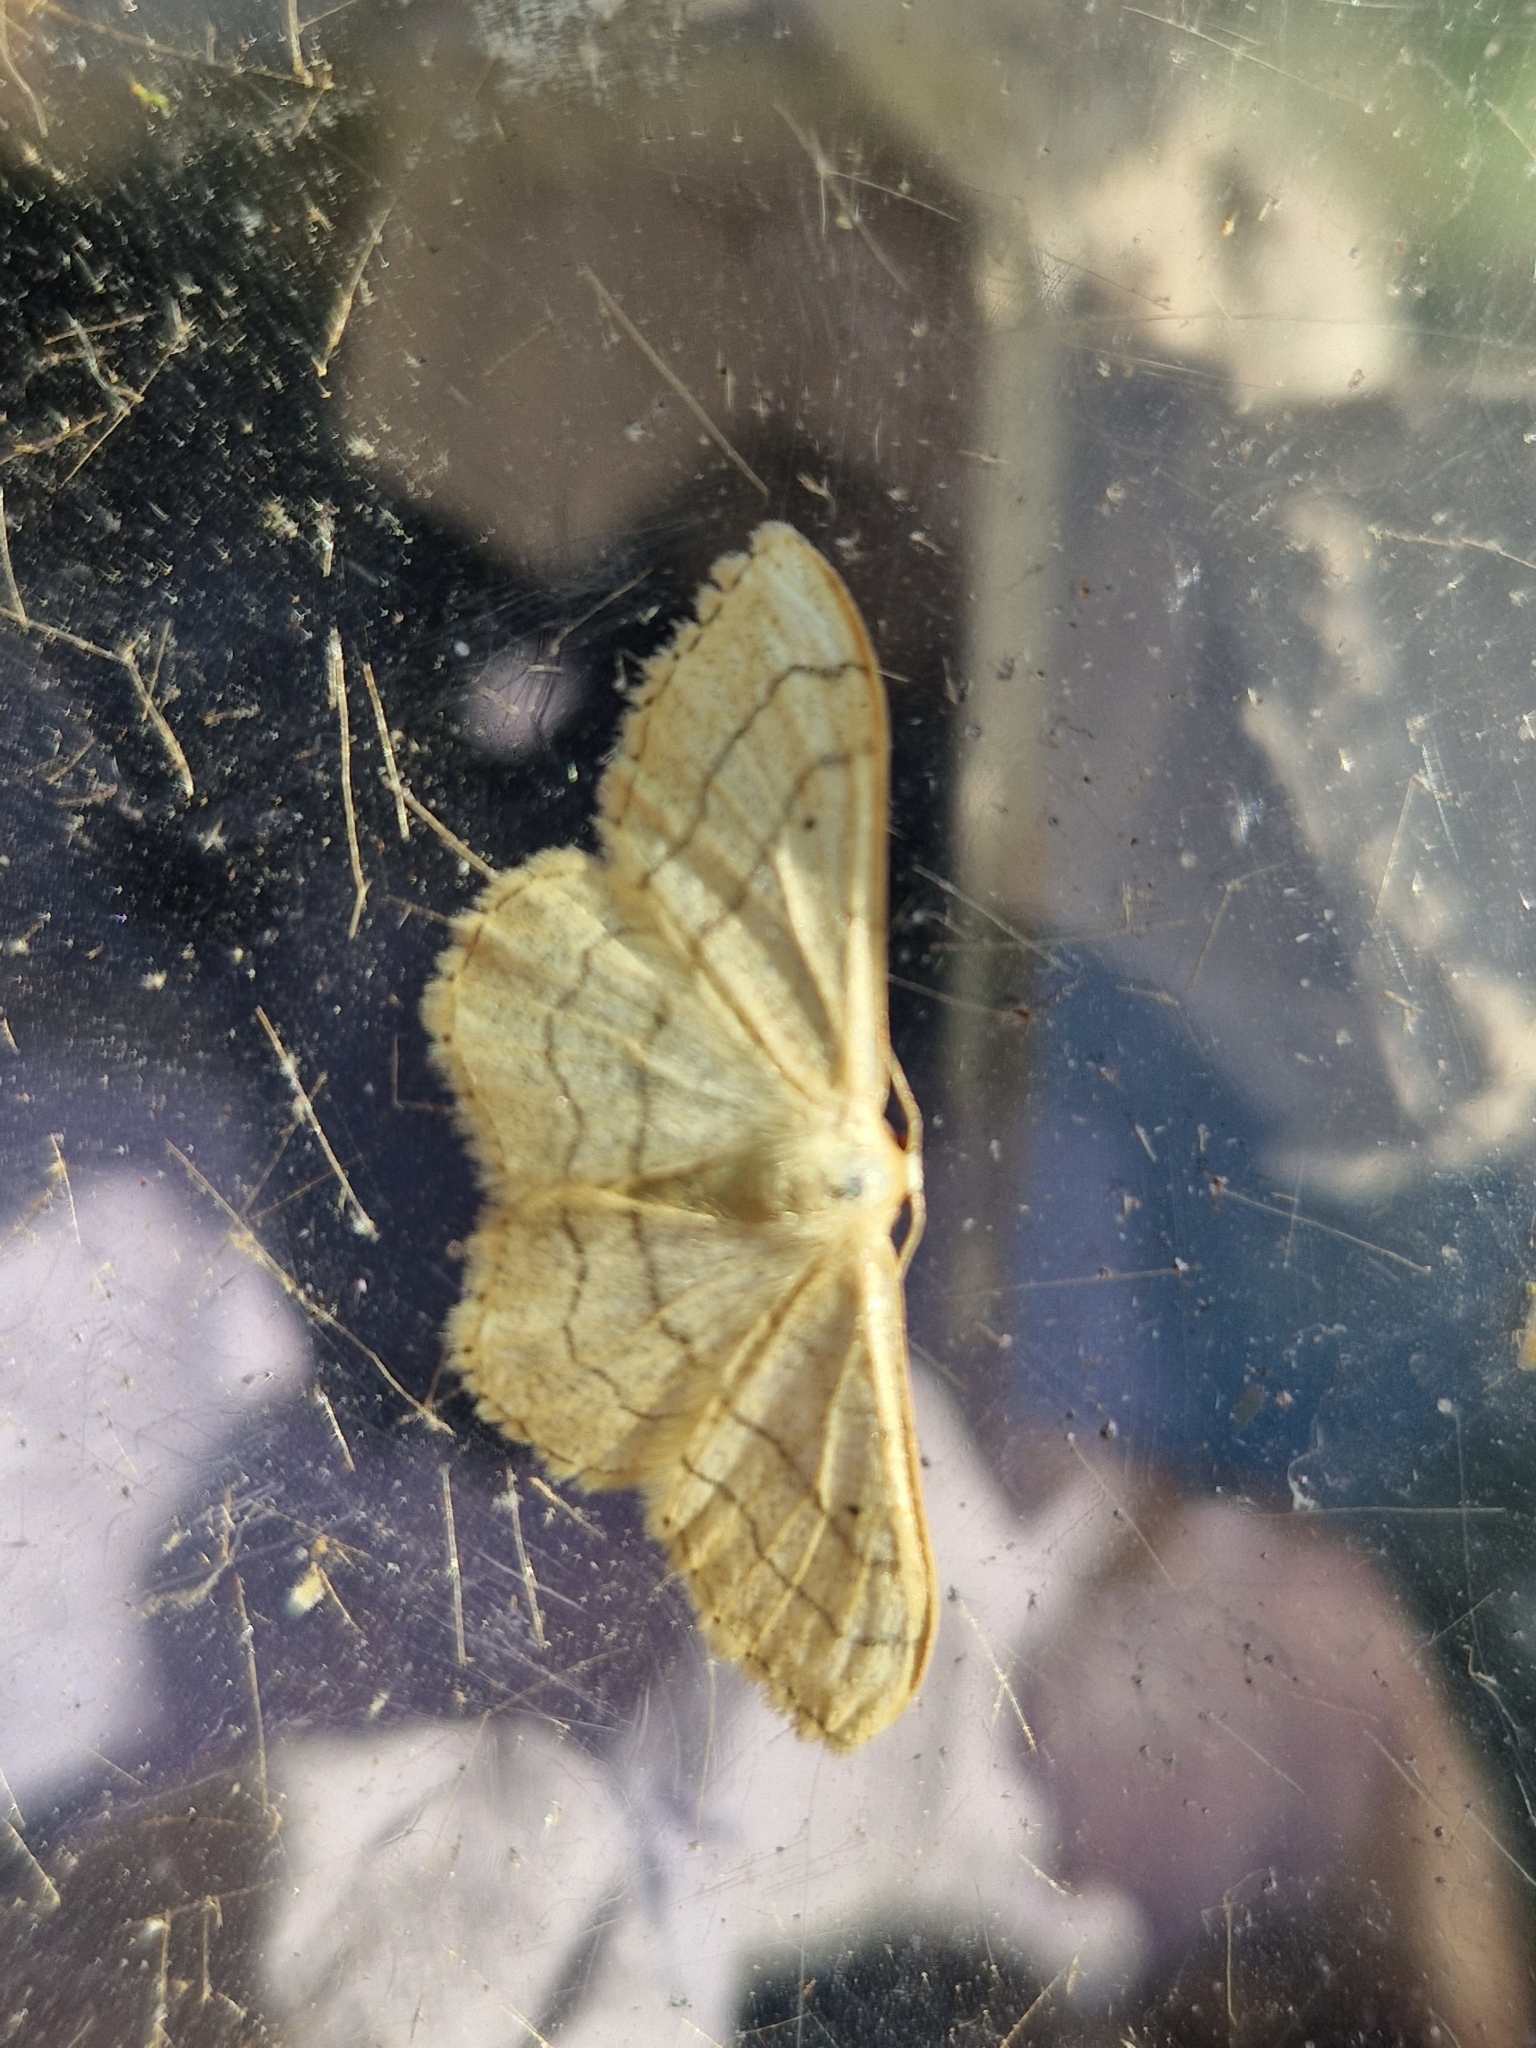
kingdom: Animalia
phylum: Arthropoda
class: Insecta
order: Lepidoptera
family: Geometridae
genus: Idaea
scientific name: Idaea aversata
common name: Riband wave
